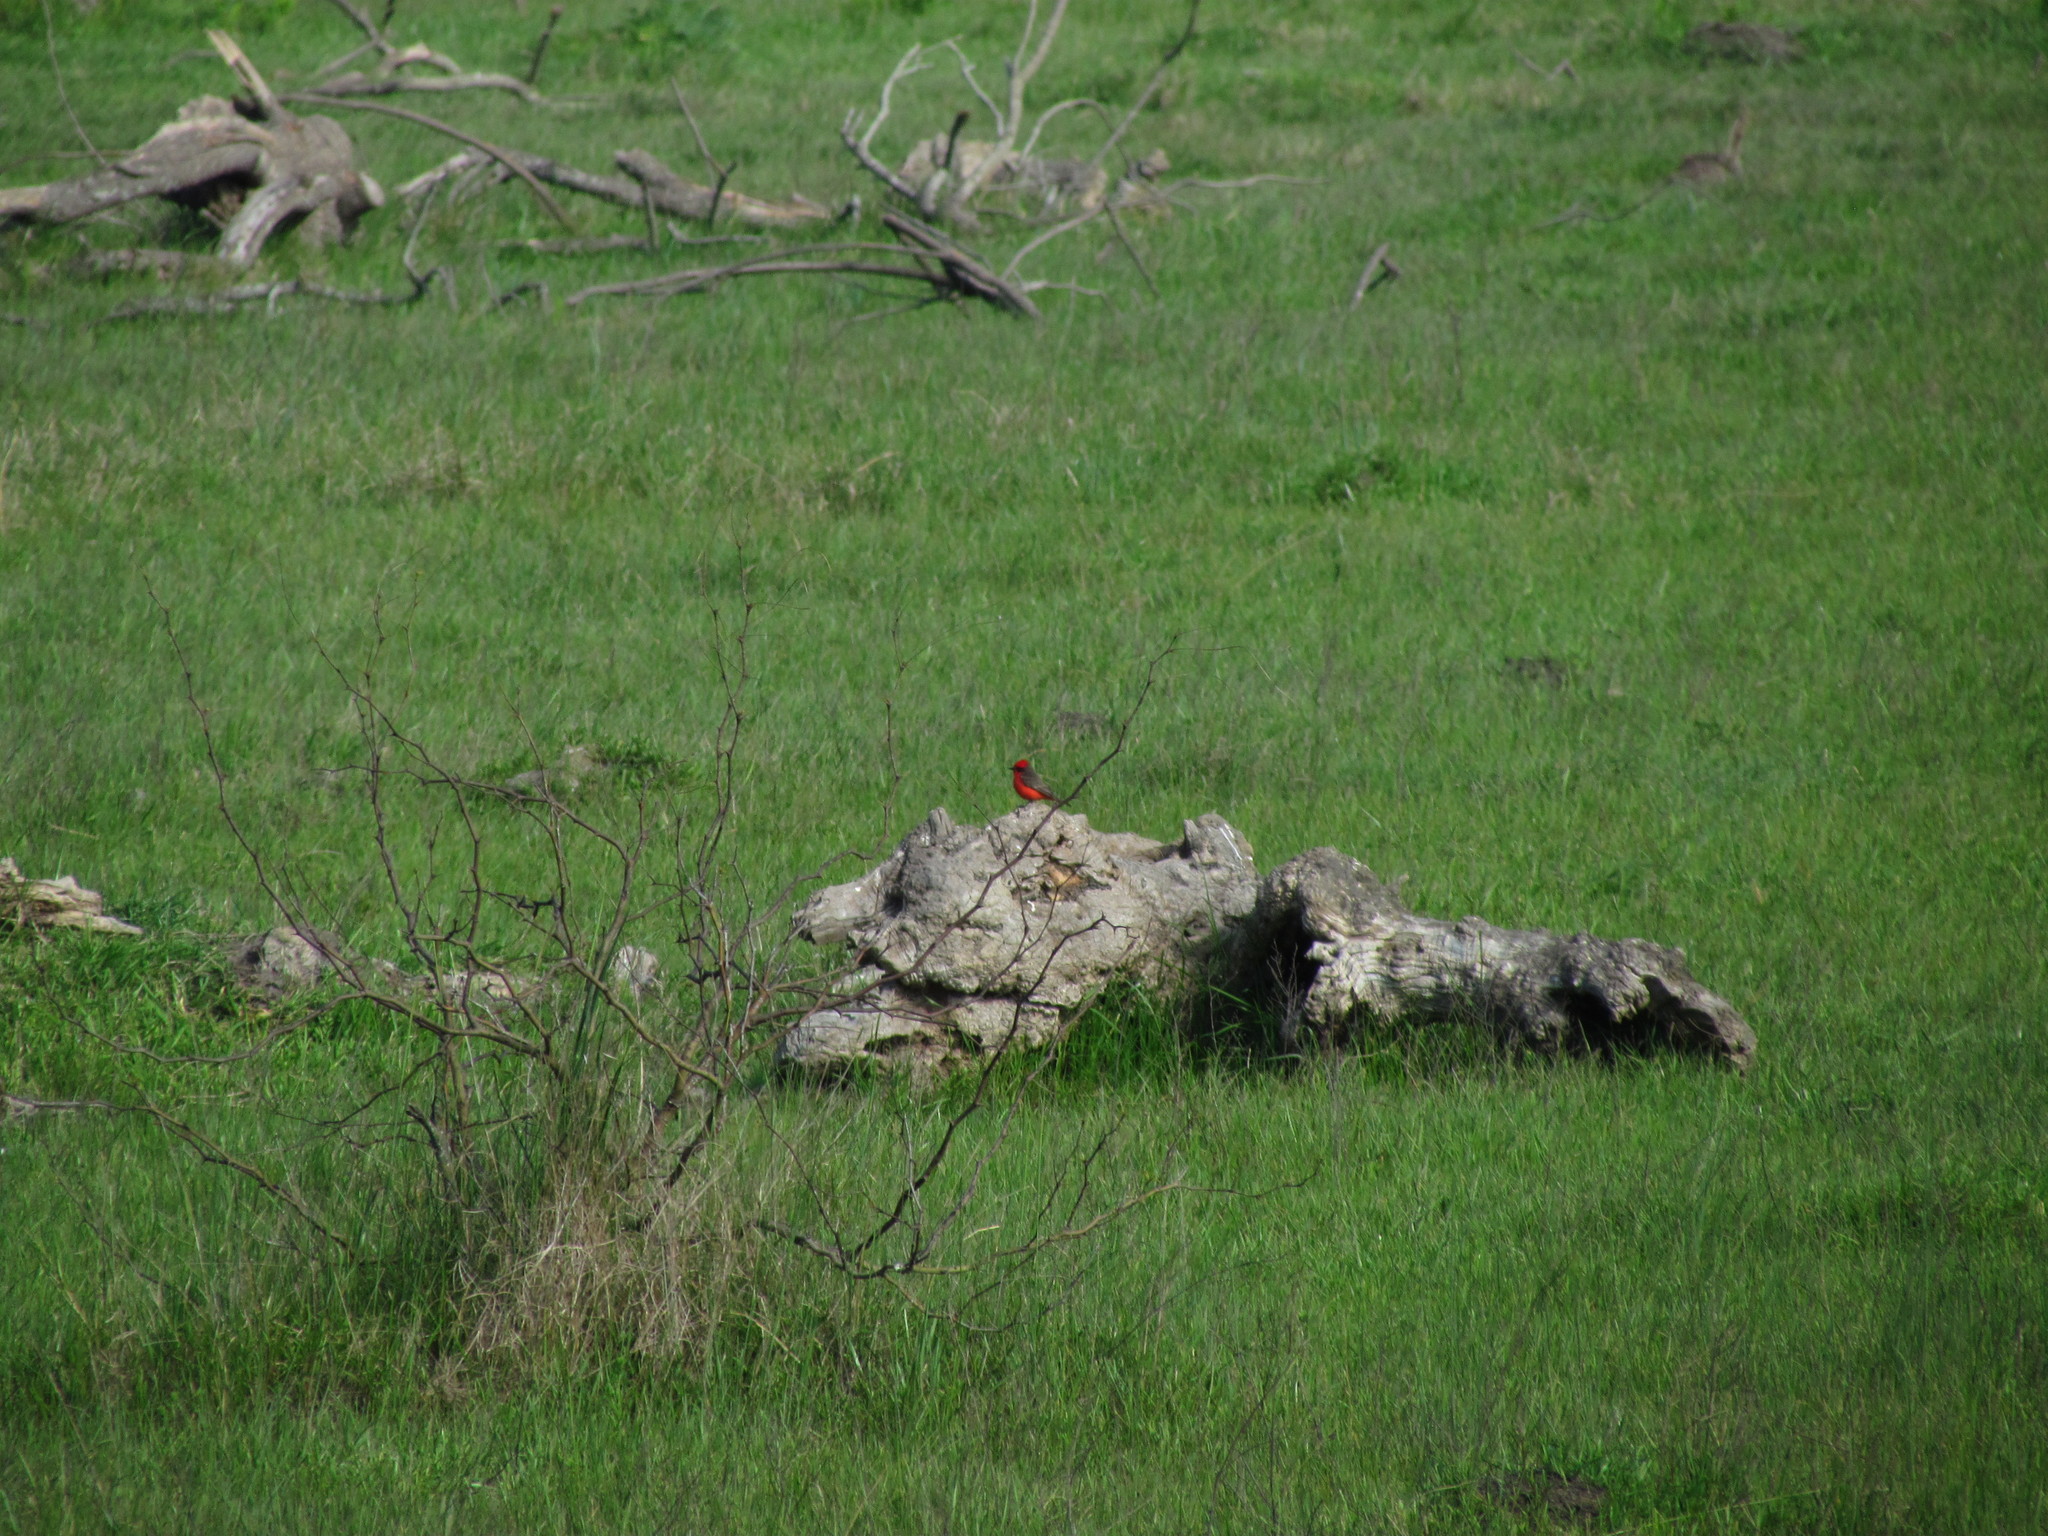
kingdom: Animalia
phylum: Chordata
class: Aves
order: Passeriformes
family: Tyrannidae
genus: Pyrocephalus
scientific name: Pyrocephalus rubinus
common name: Vermilion flycatcher
